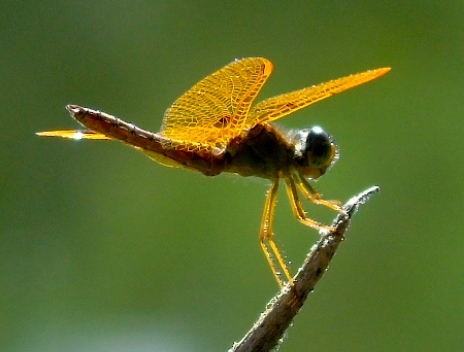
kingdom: Animalia
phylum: Arthropoda
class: Insecta
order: Odonata
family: Libellulidae
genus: Perithemis
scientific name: Perithemis
